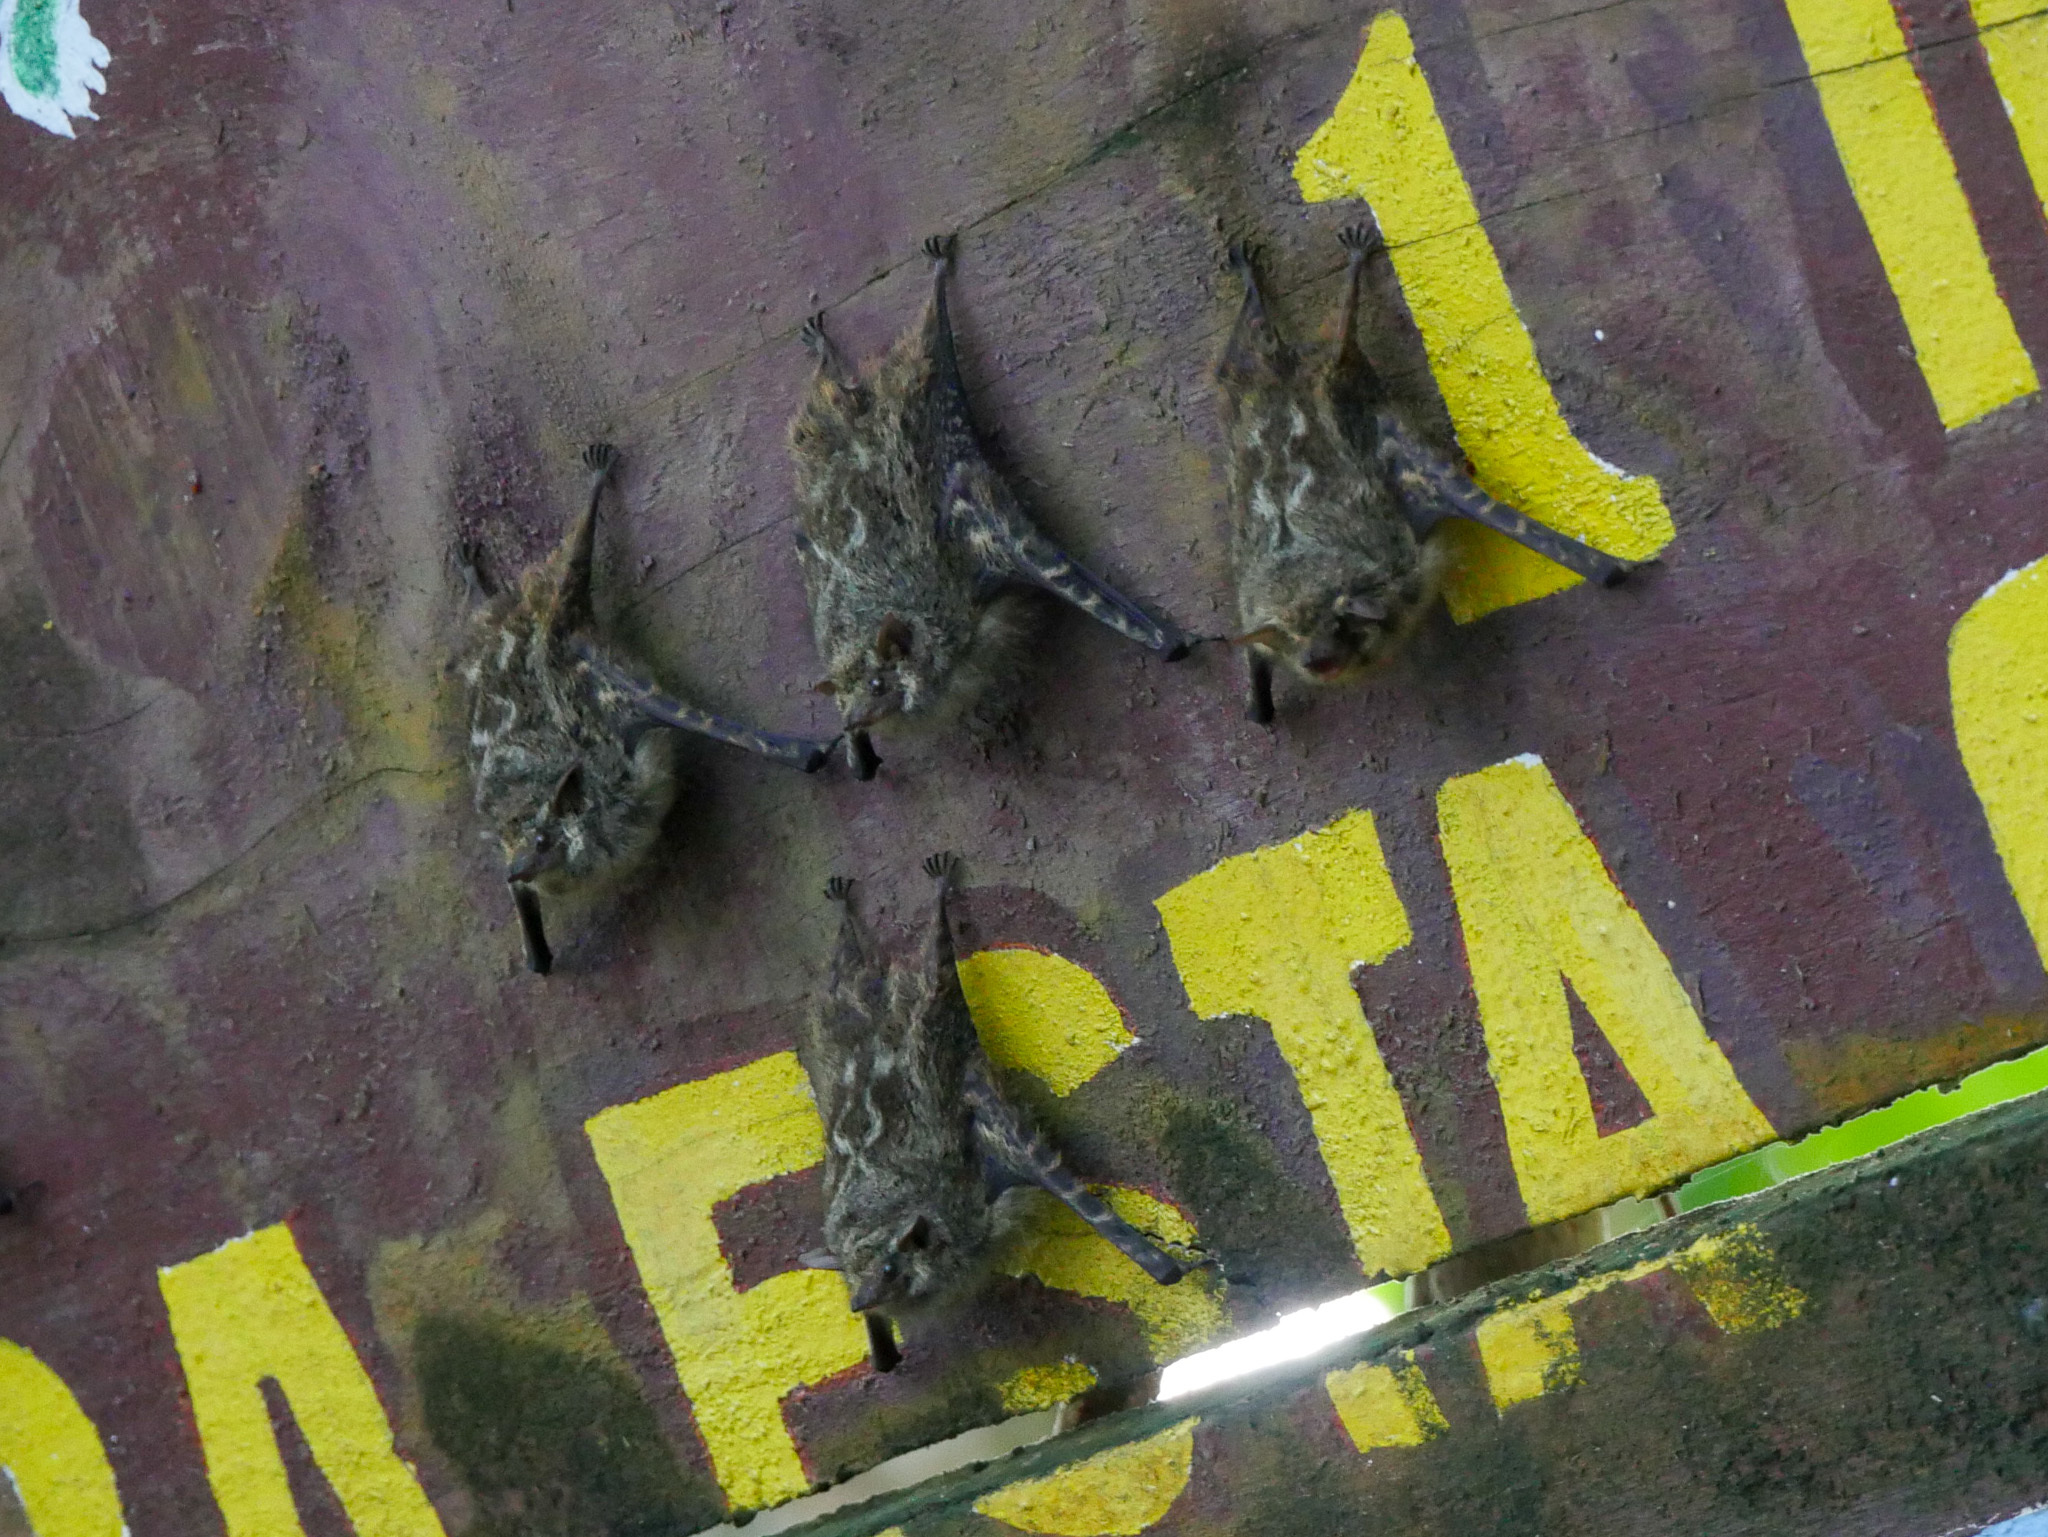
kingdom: Animalia
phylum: Chordata
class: Mammalia
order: Chiroptera
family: Emballonuridae
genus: Rhynchonycteris
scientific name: Rhynchonycteris naso
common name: Proboscis bat
